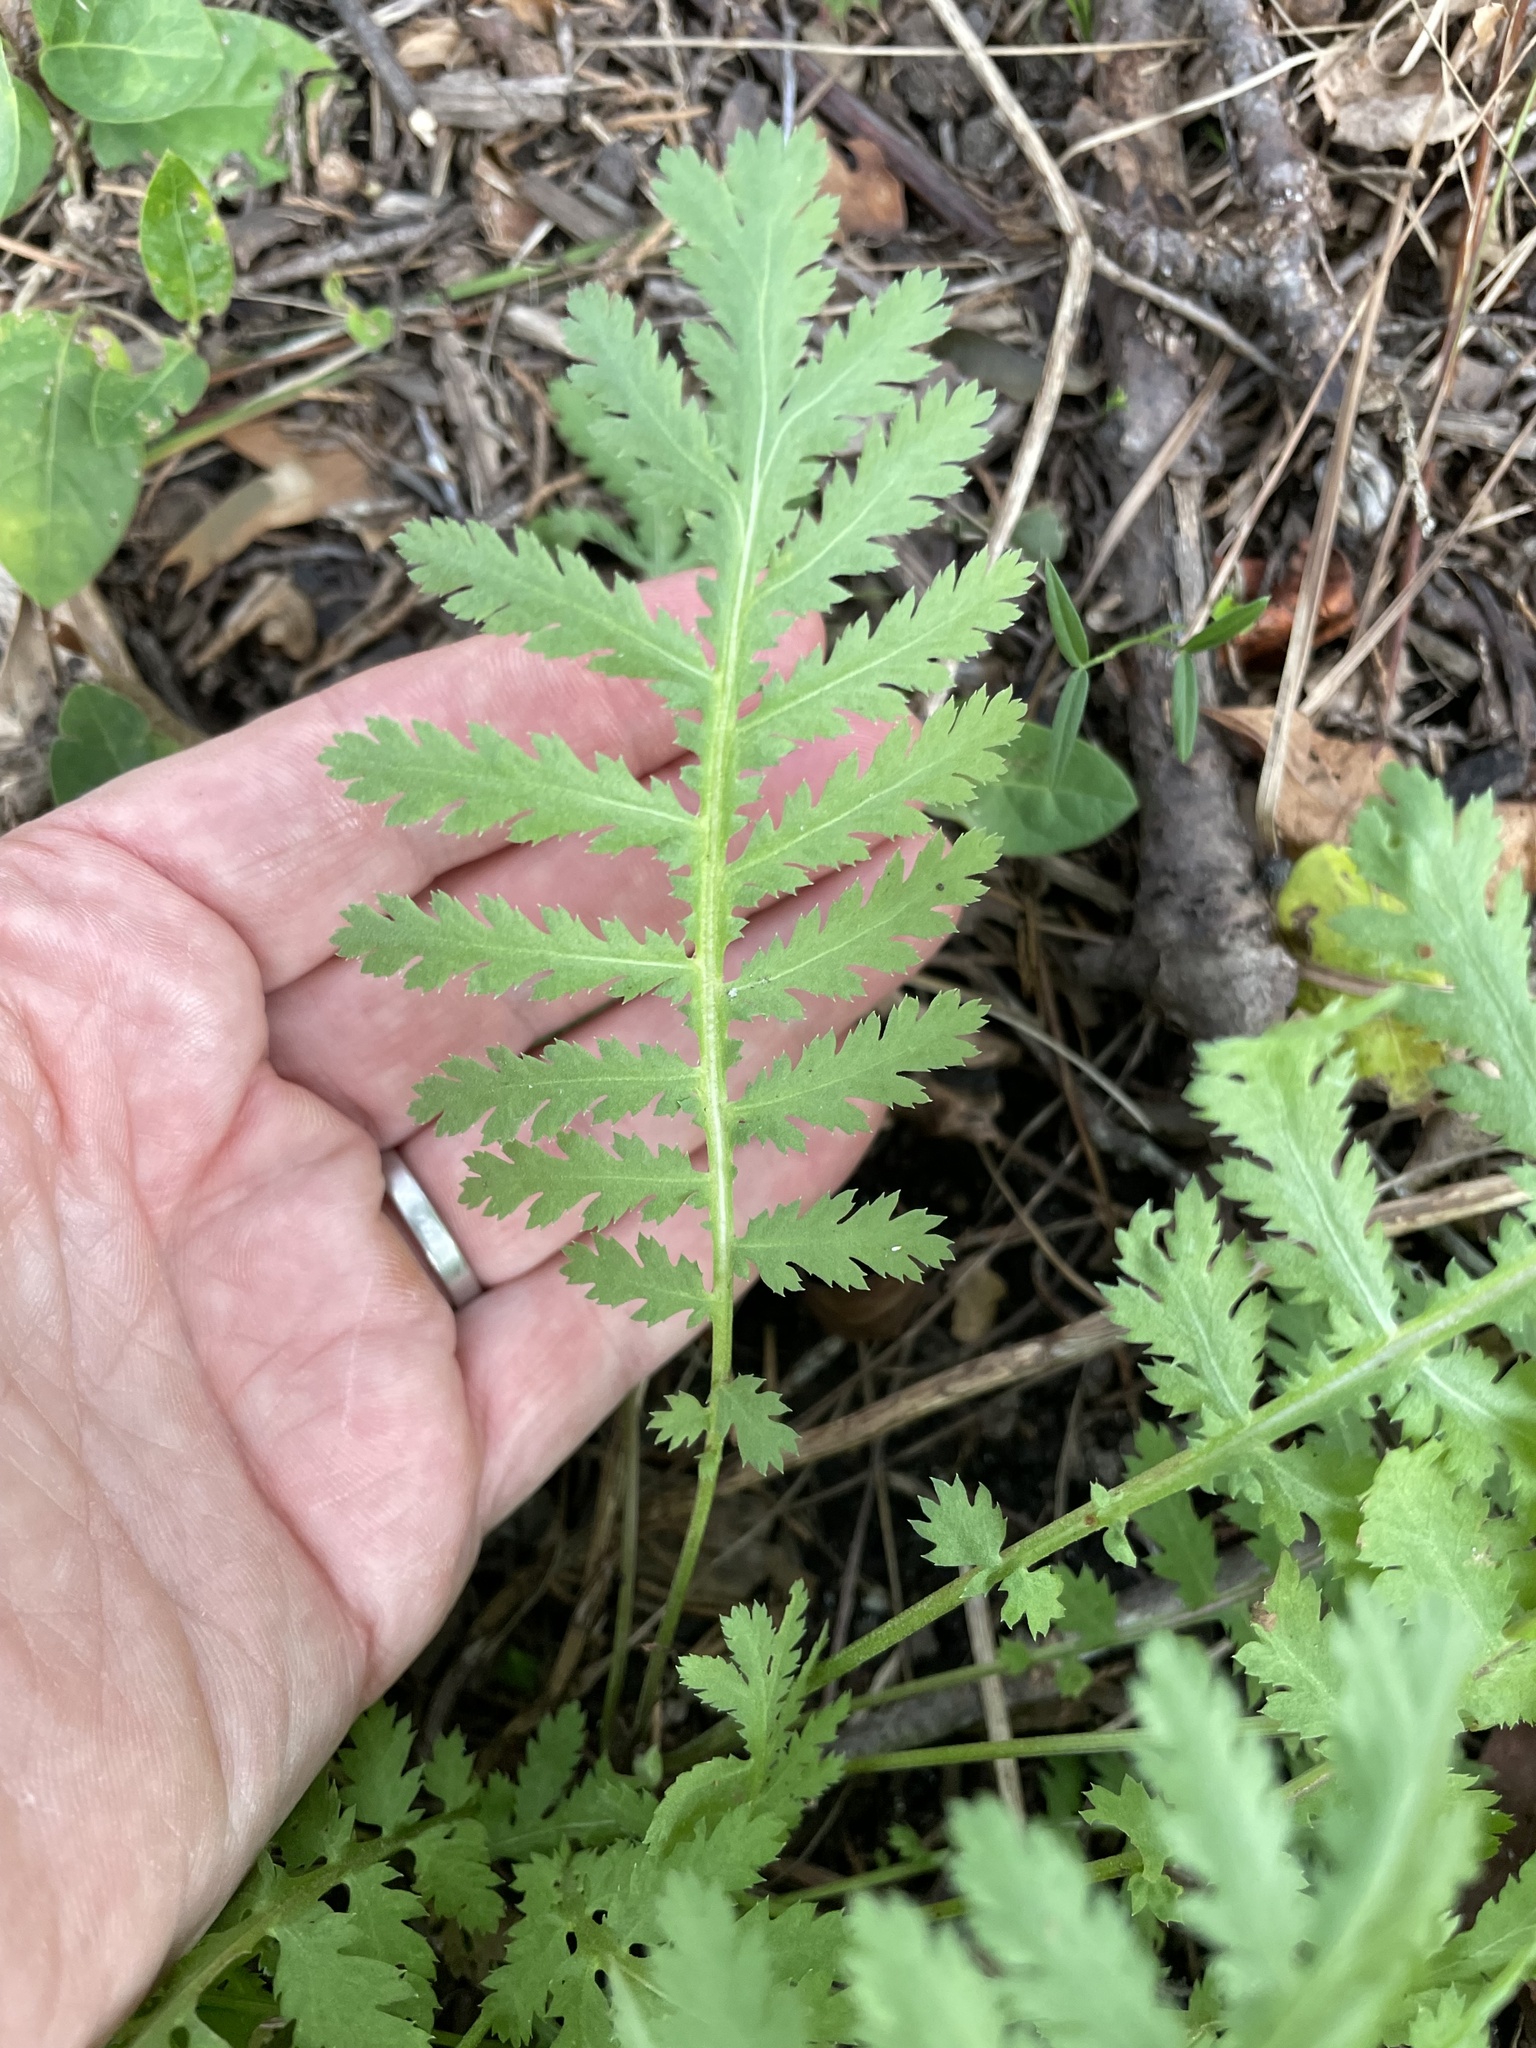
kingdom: Plantae
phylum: Tracheophyta
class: Magnoliopsida
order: Asterales
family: Asteraceae
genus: Tanacetum
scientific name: Tanacetum vulgare
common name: Common tansy
